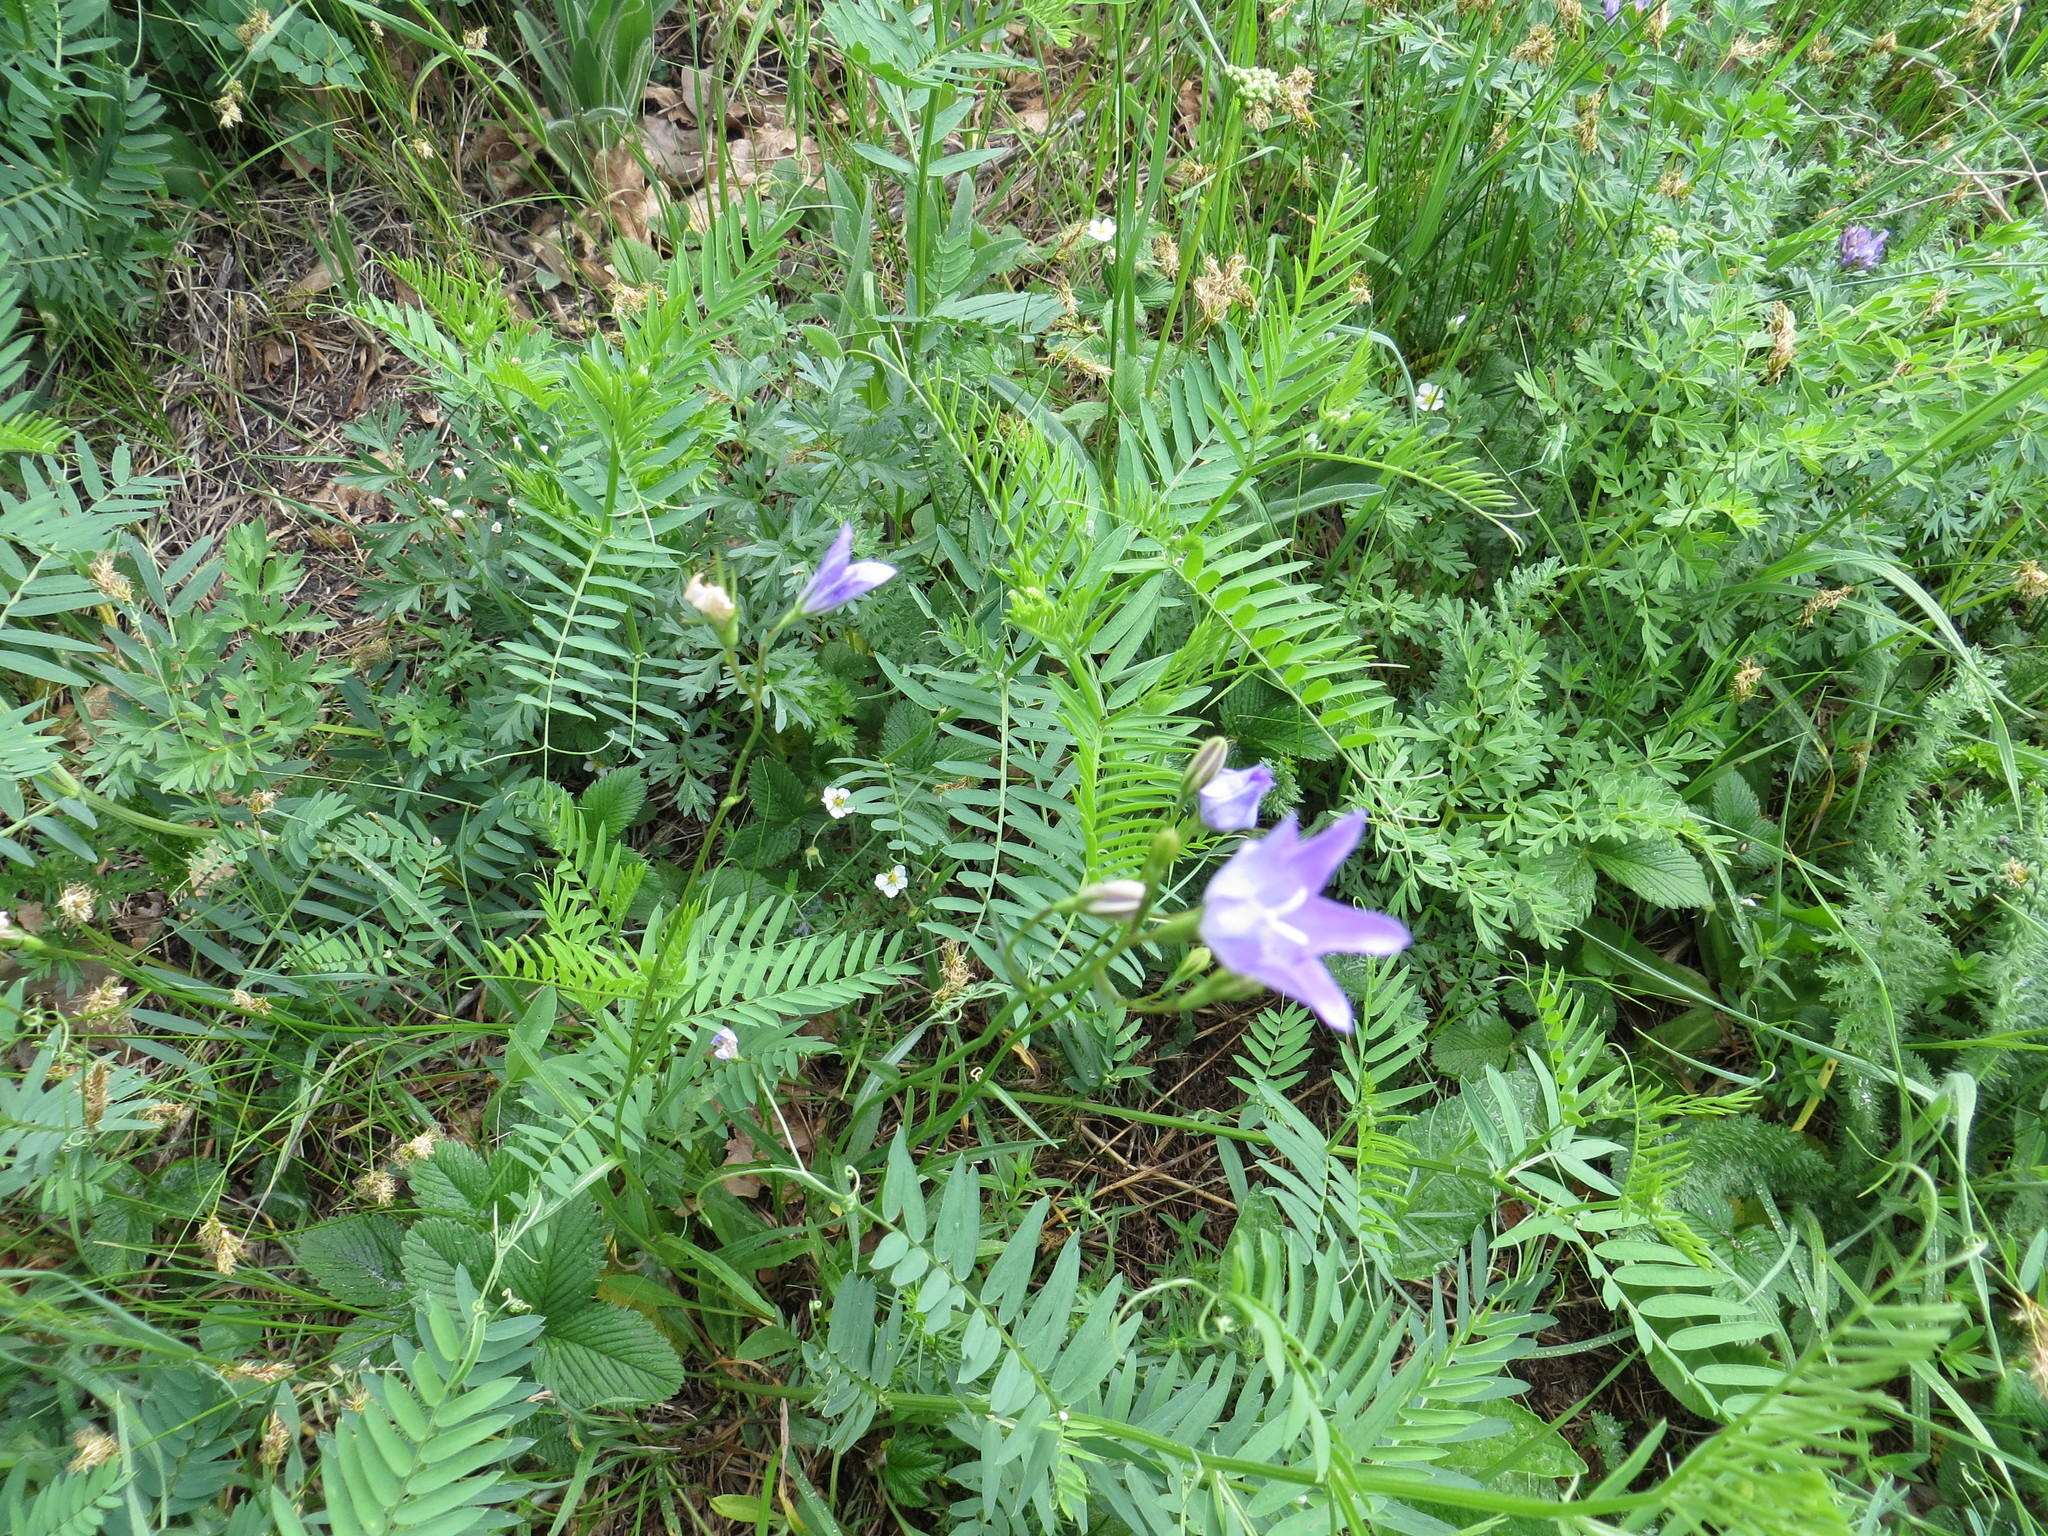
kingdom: Plantae
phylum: Tracheophyta
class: Magnoliopsida
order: Asterales
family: Campanulaceae
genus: Campanula
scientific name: Campanula stevenii
